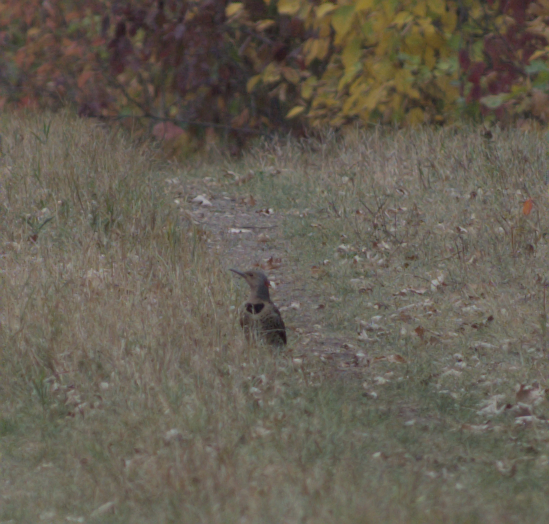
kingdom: Animalia
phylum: Chordata
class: Aves
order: Piciformes
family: Picidae
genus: Colaptes
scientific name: Colaptes auratus
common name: Northern flicker
